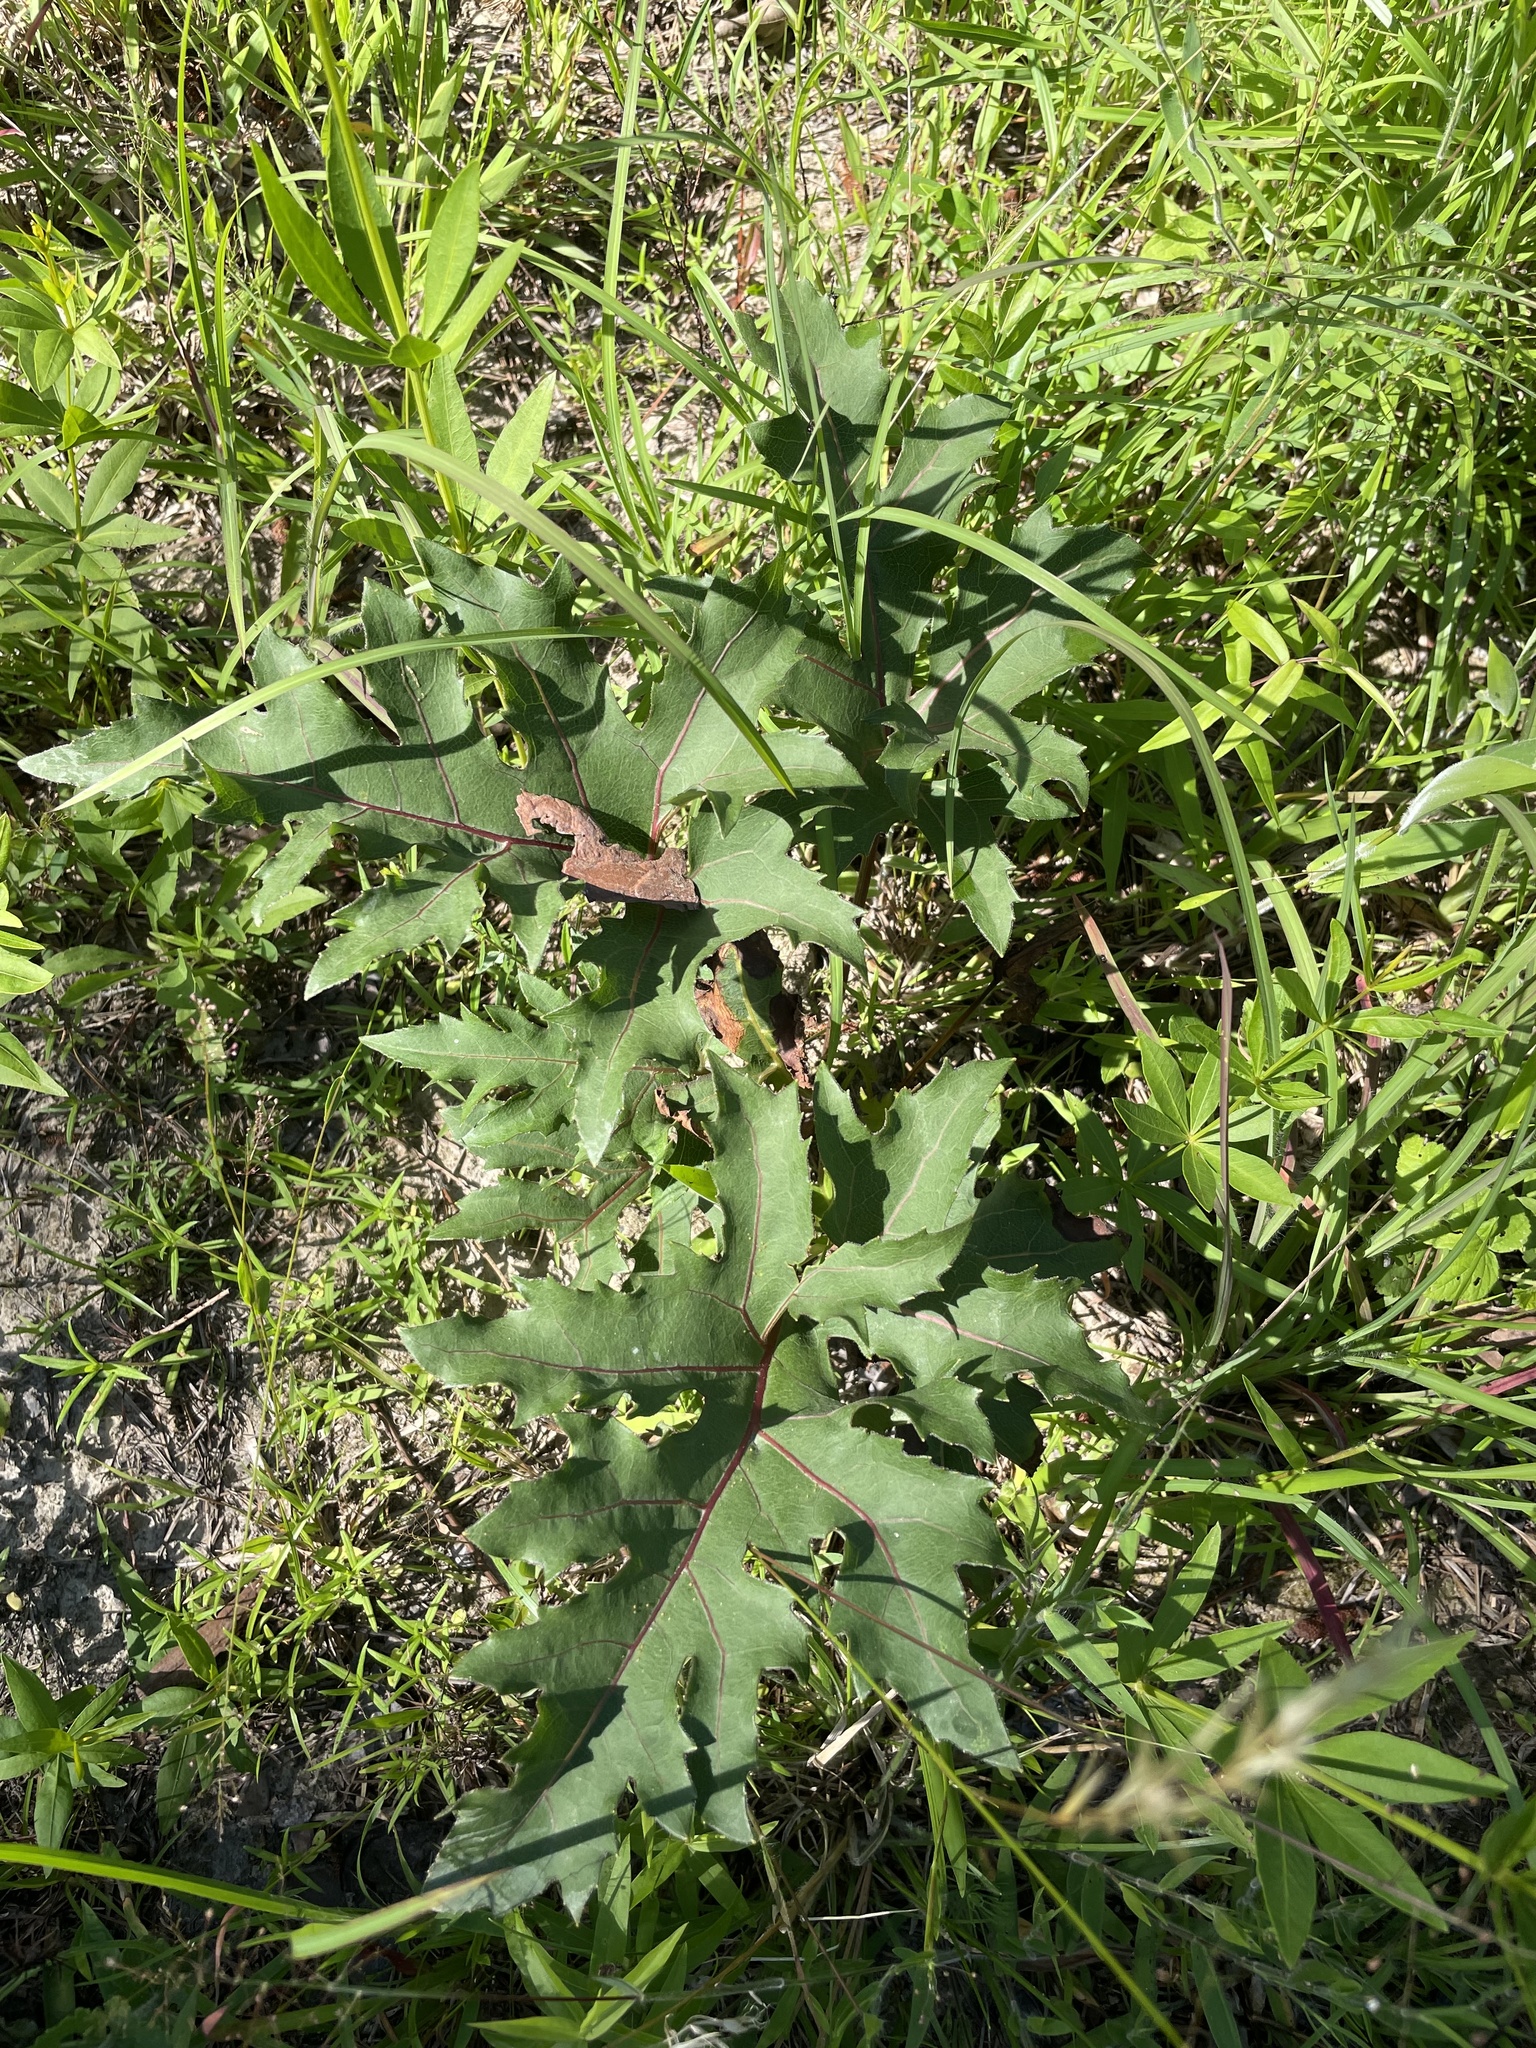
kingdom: Plantae
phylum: Tracheophyta
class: Magnoliopsida
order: Asterales
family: Asteraceae
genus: Silphium
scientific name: Silphium compositum
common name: Lesser basal-leaf rosinweed
